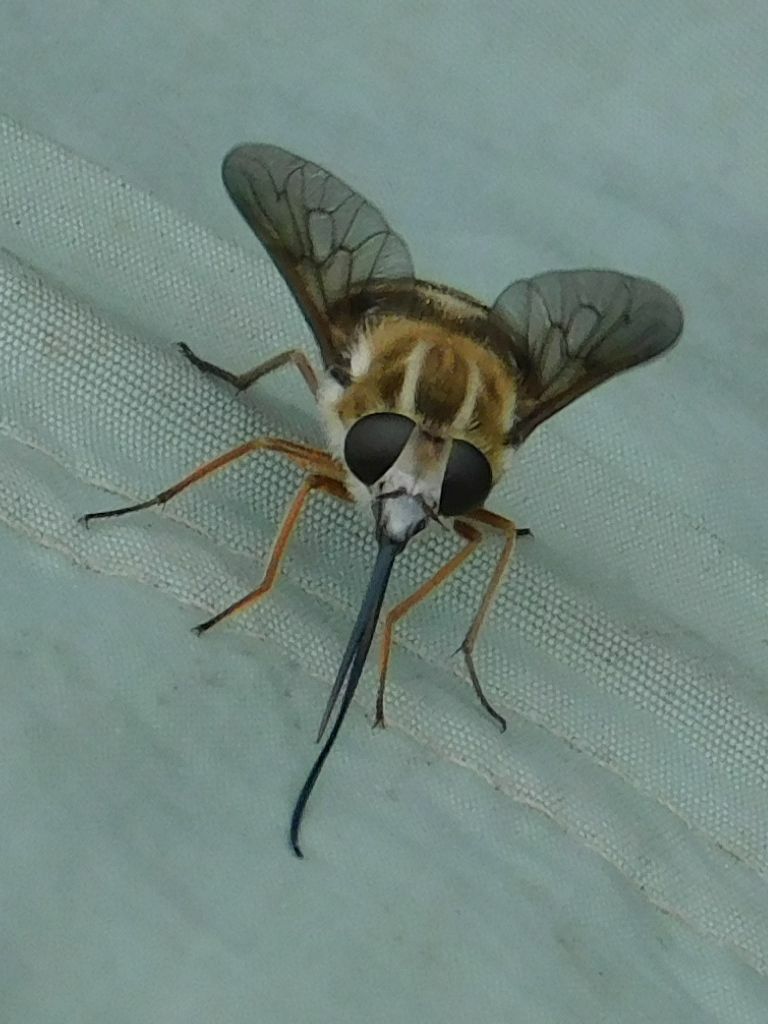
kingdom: Animalia
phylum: Arthropoda
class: Insecta
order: Diptera
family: Tabanidae
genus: Philoliche
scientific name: Philoliche gulosa
